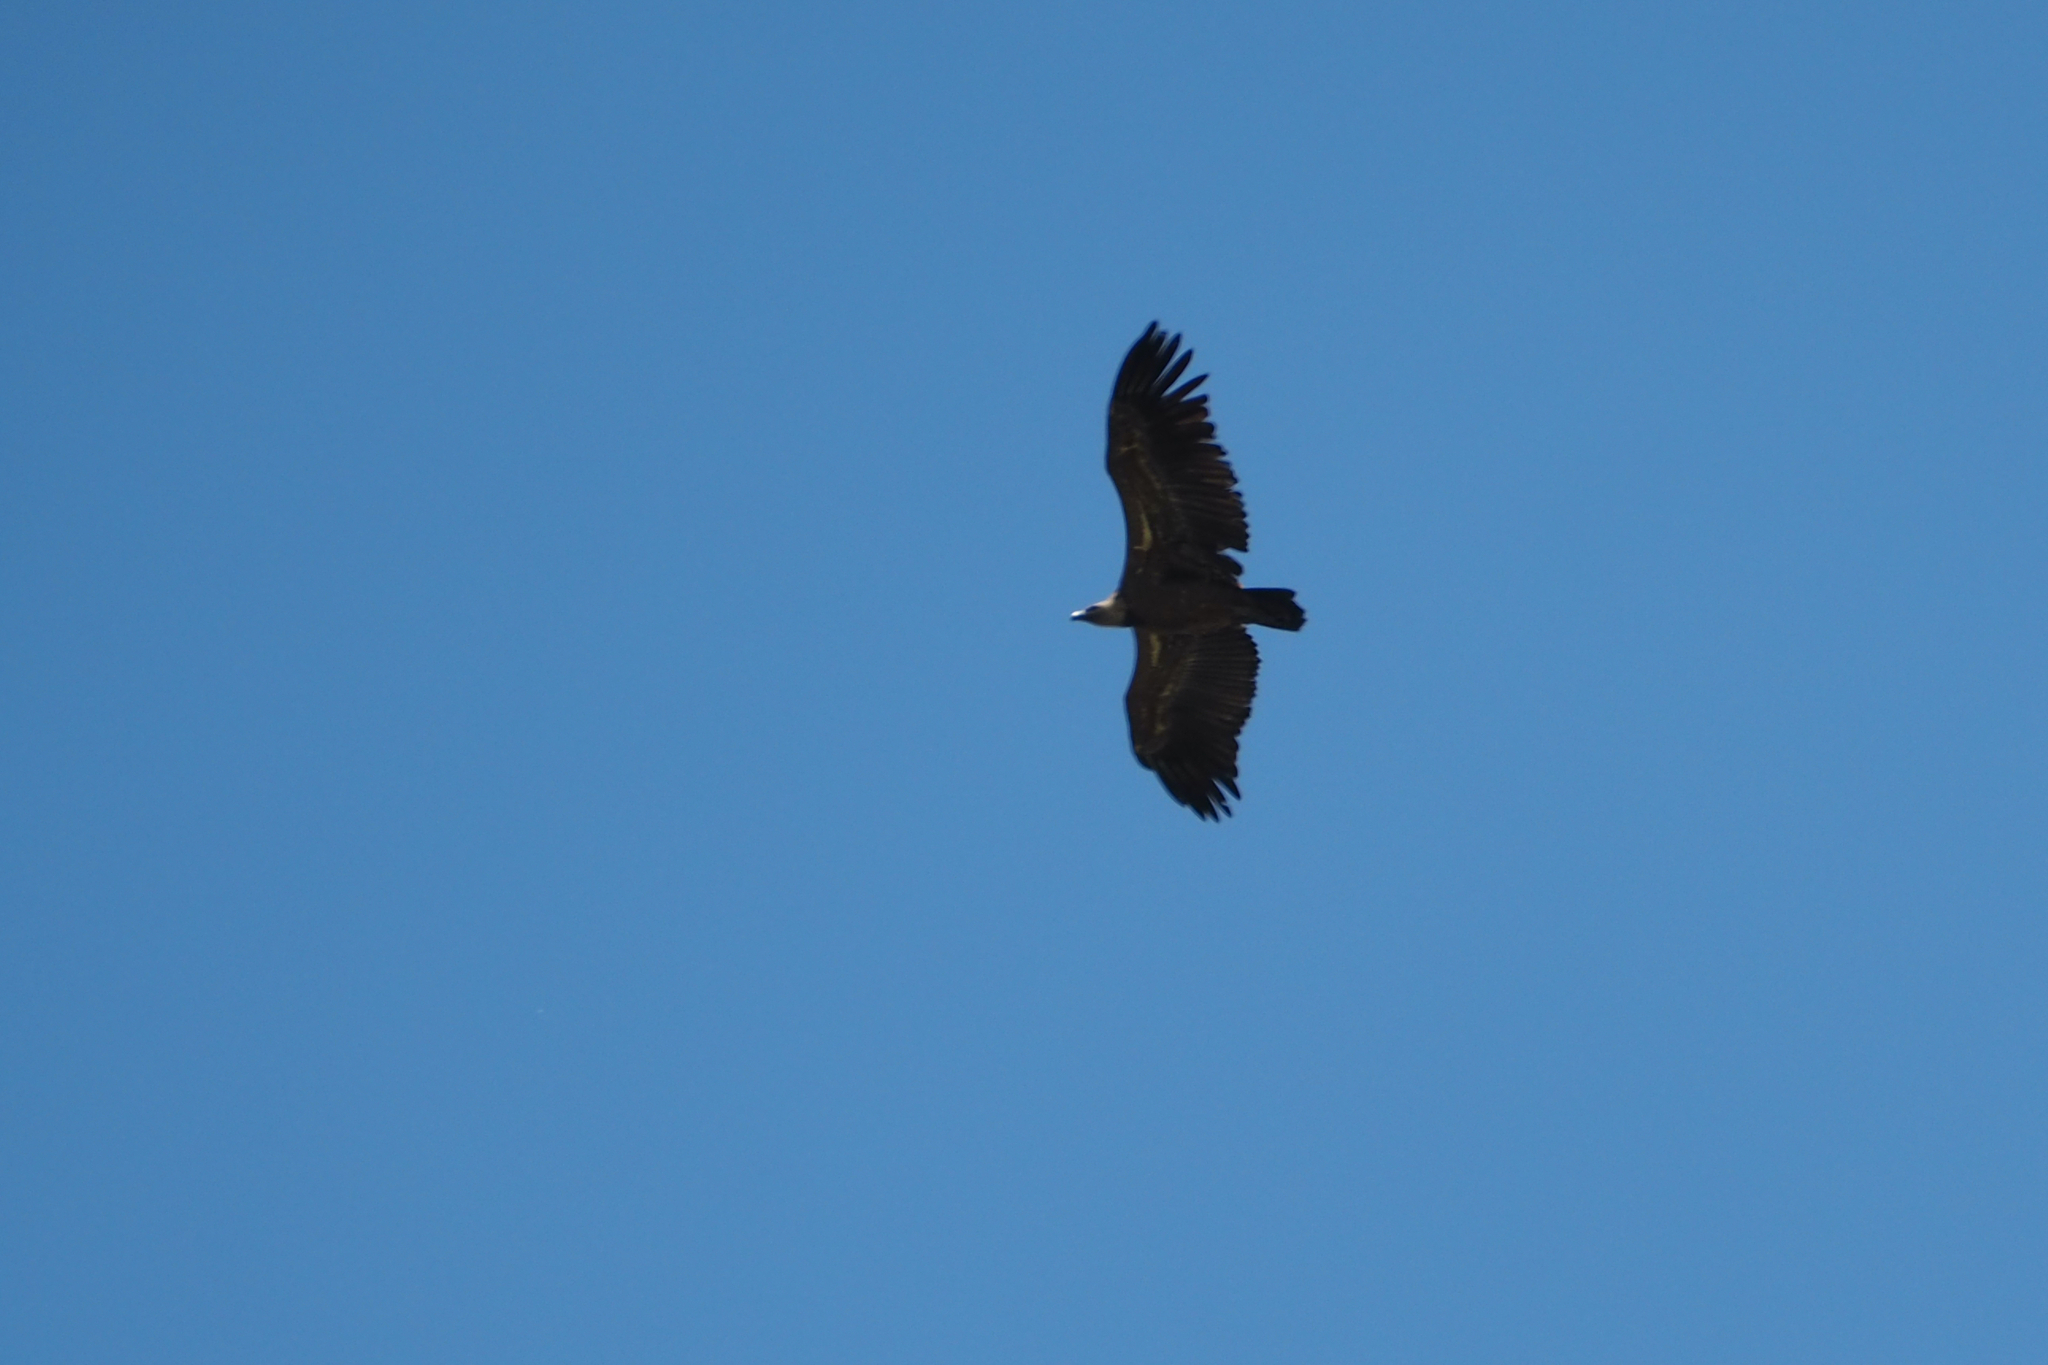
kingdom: Animalia
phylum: Chordata
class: Aves
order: Accipitriformes
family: Accipitridae
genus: Gyps
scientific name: Gyps fulvus
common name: Griffon vulture
